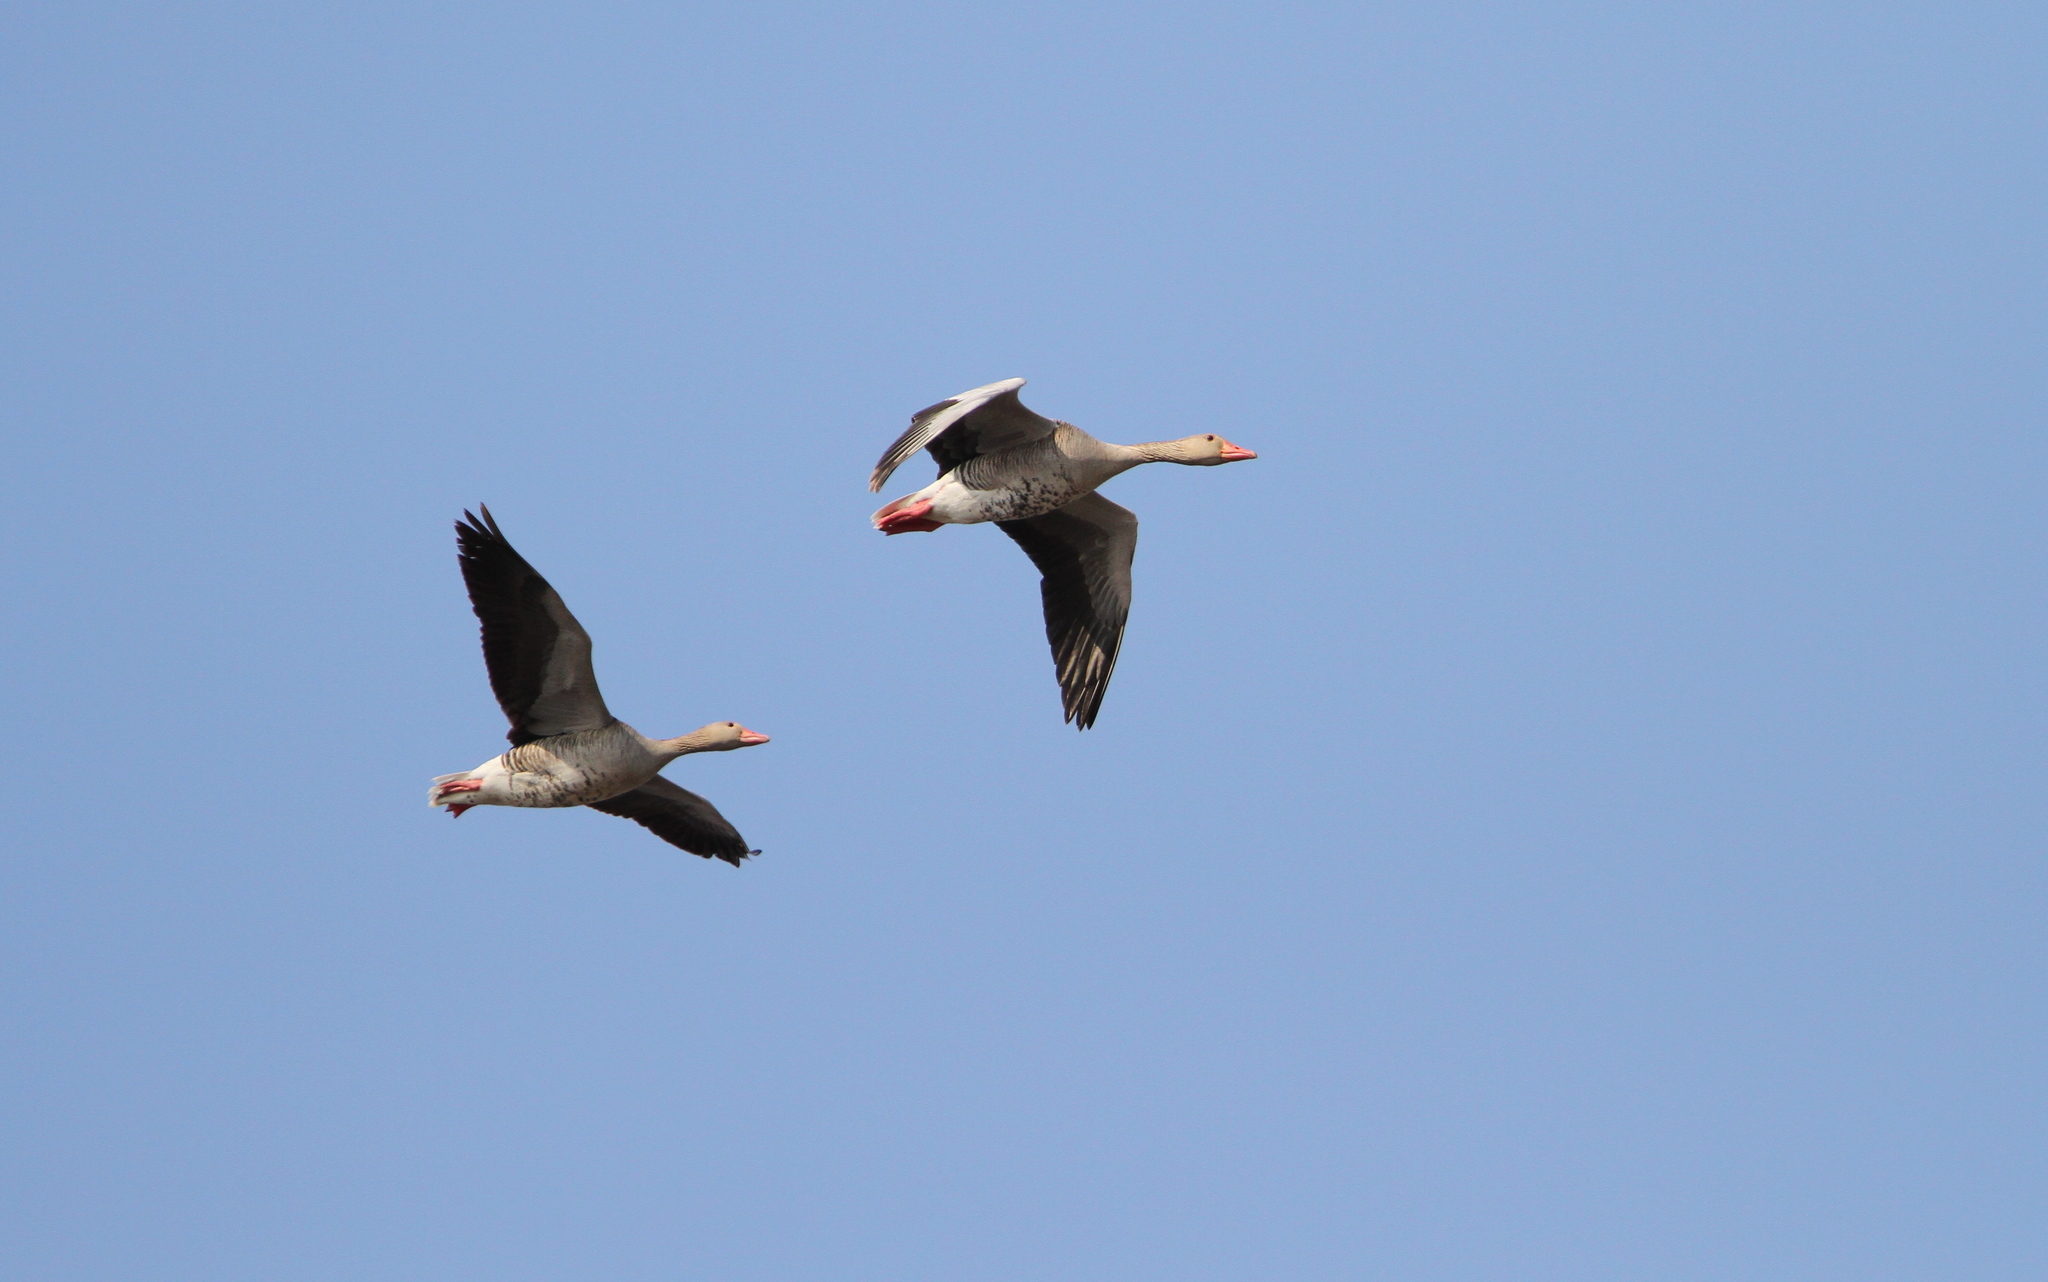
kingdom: Animalia
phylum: Chordata
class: Aves
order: Anseriformes
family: Anatidae
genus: Anser
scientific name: Anser anser
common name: Greylag goose
